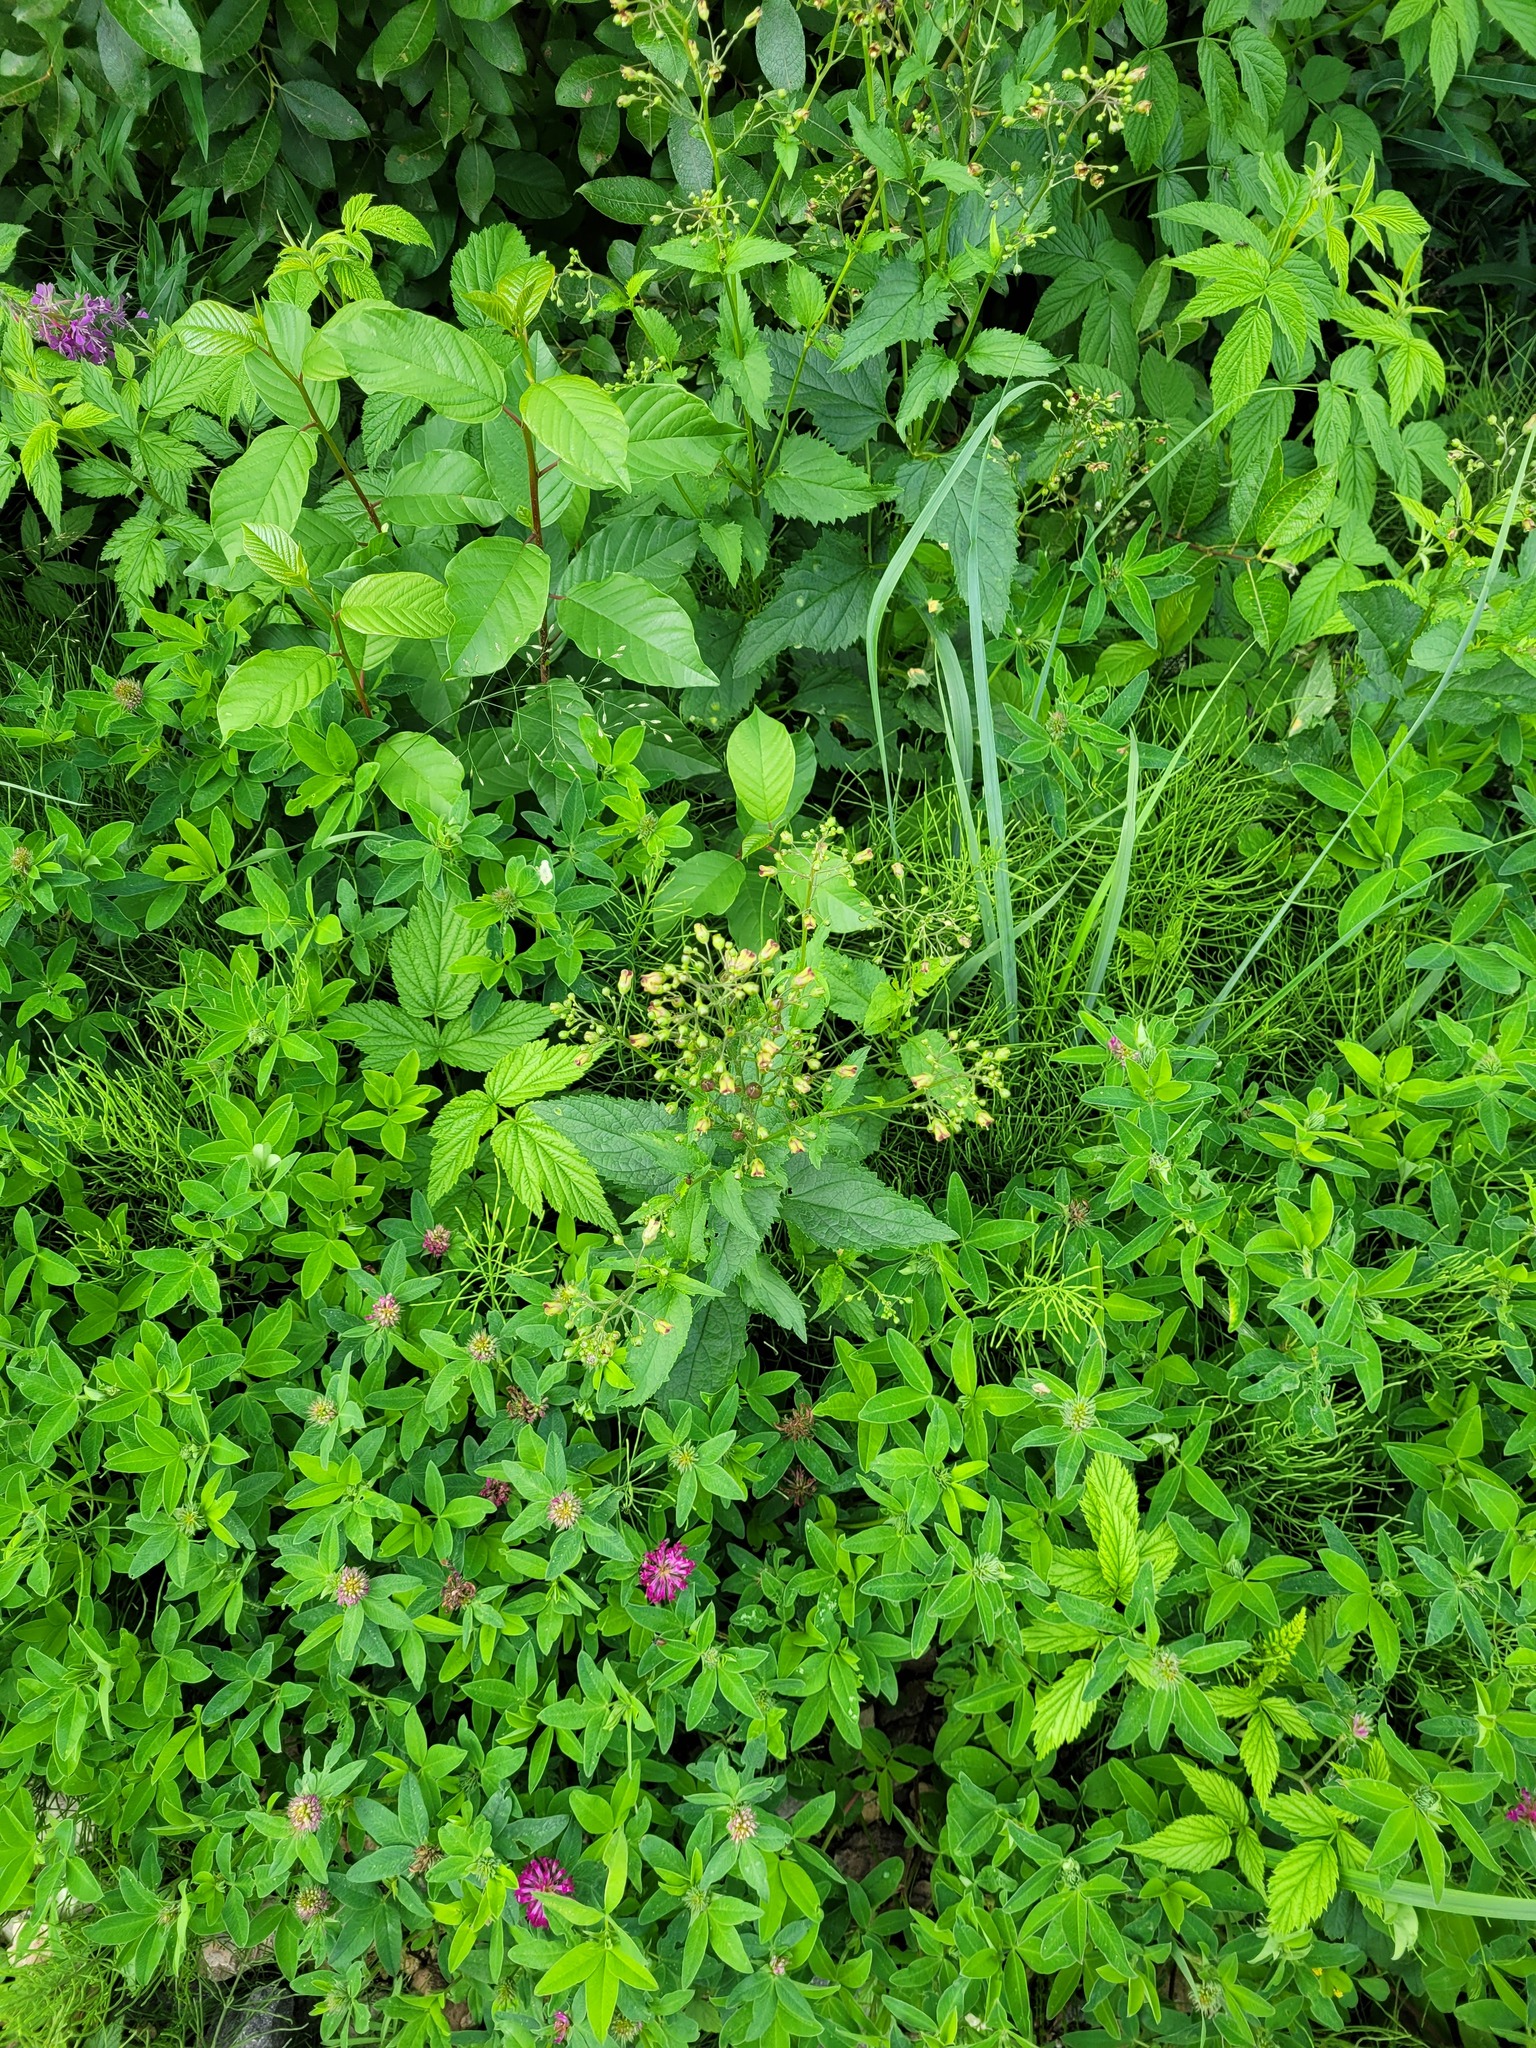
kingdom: Plantae
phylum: Tracheophyta
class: Magnoliopsida
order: Lamiales
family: Scrophulariaceae
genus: Scrophularia
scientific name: Scrophularia nodosa
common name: Common figwort
